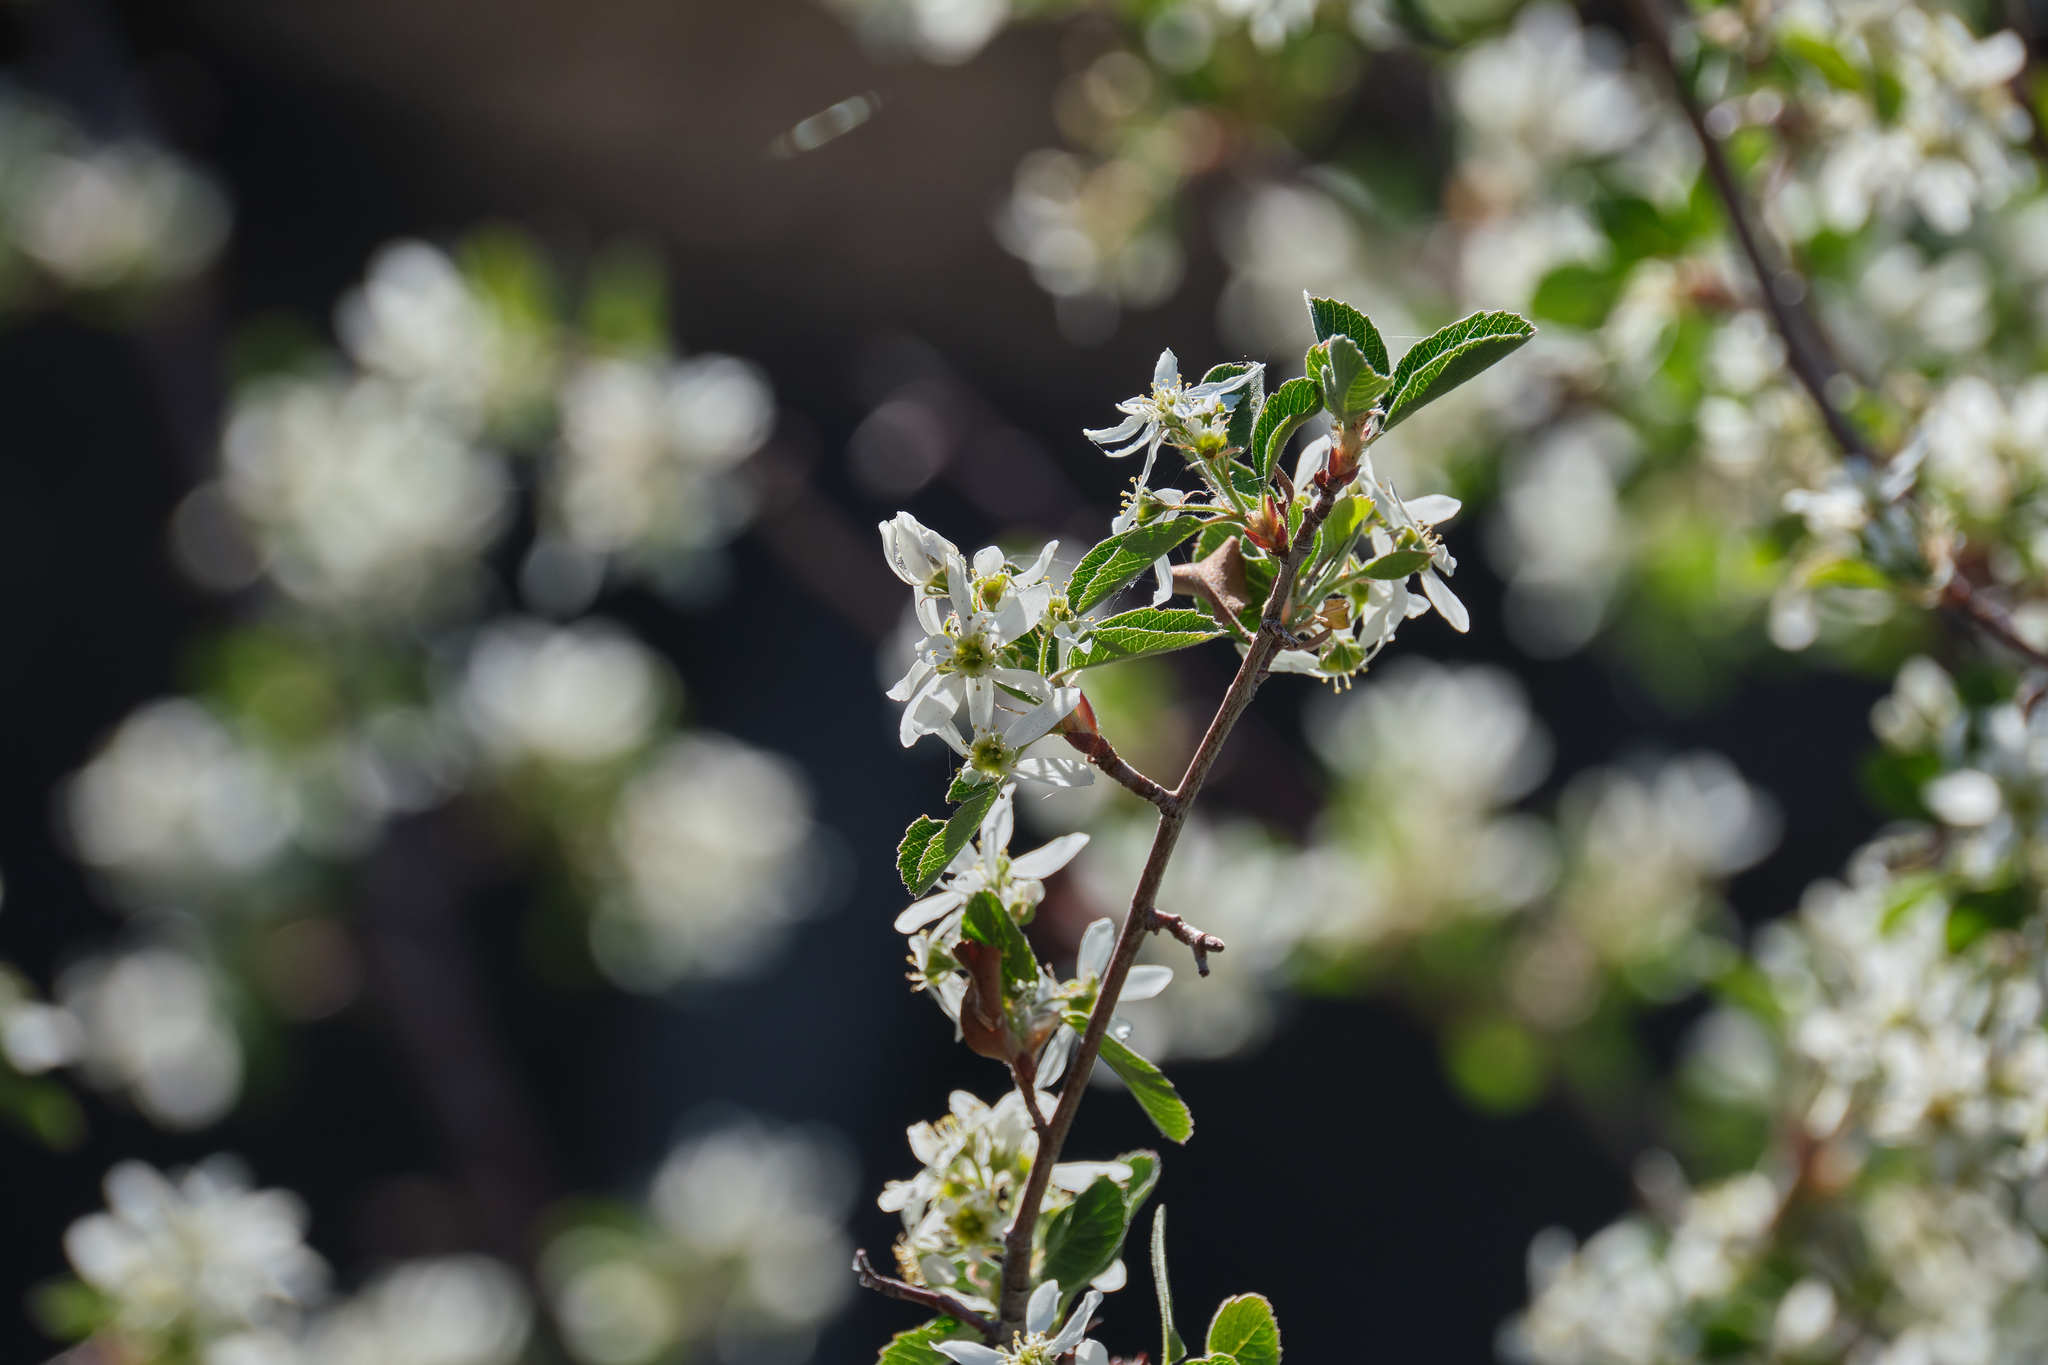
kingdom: Plantae
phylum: Tracheophyta
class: Magnoliopsida
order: Rosales
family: Rosaceae
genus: Amelanchier
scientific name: Amelanchier utahensis
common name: Utah serviceberry
